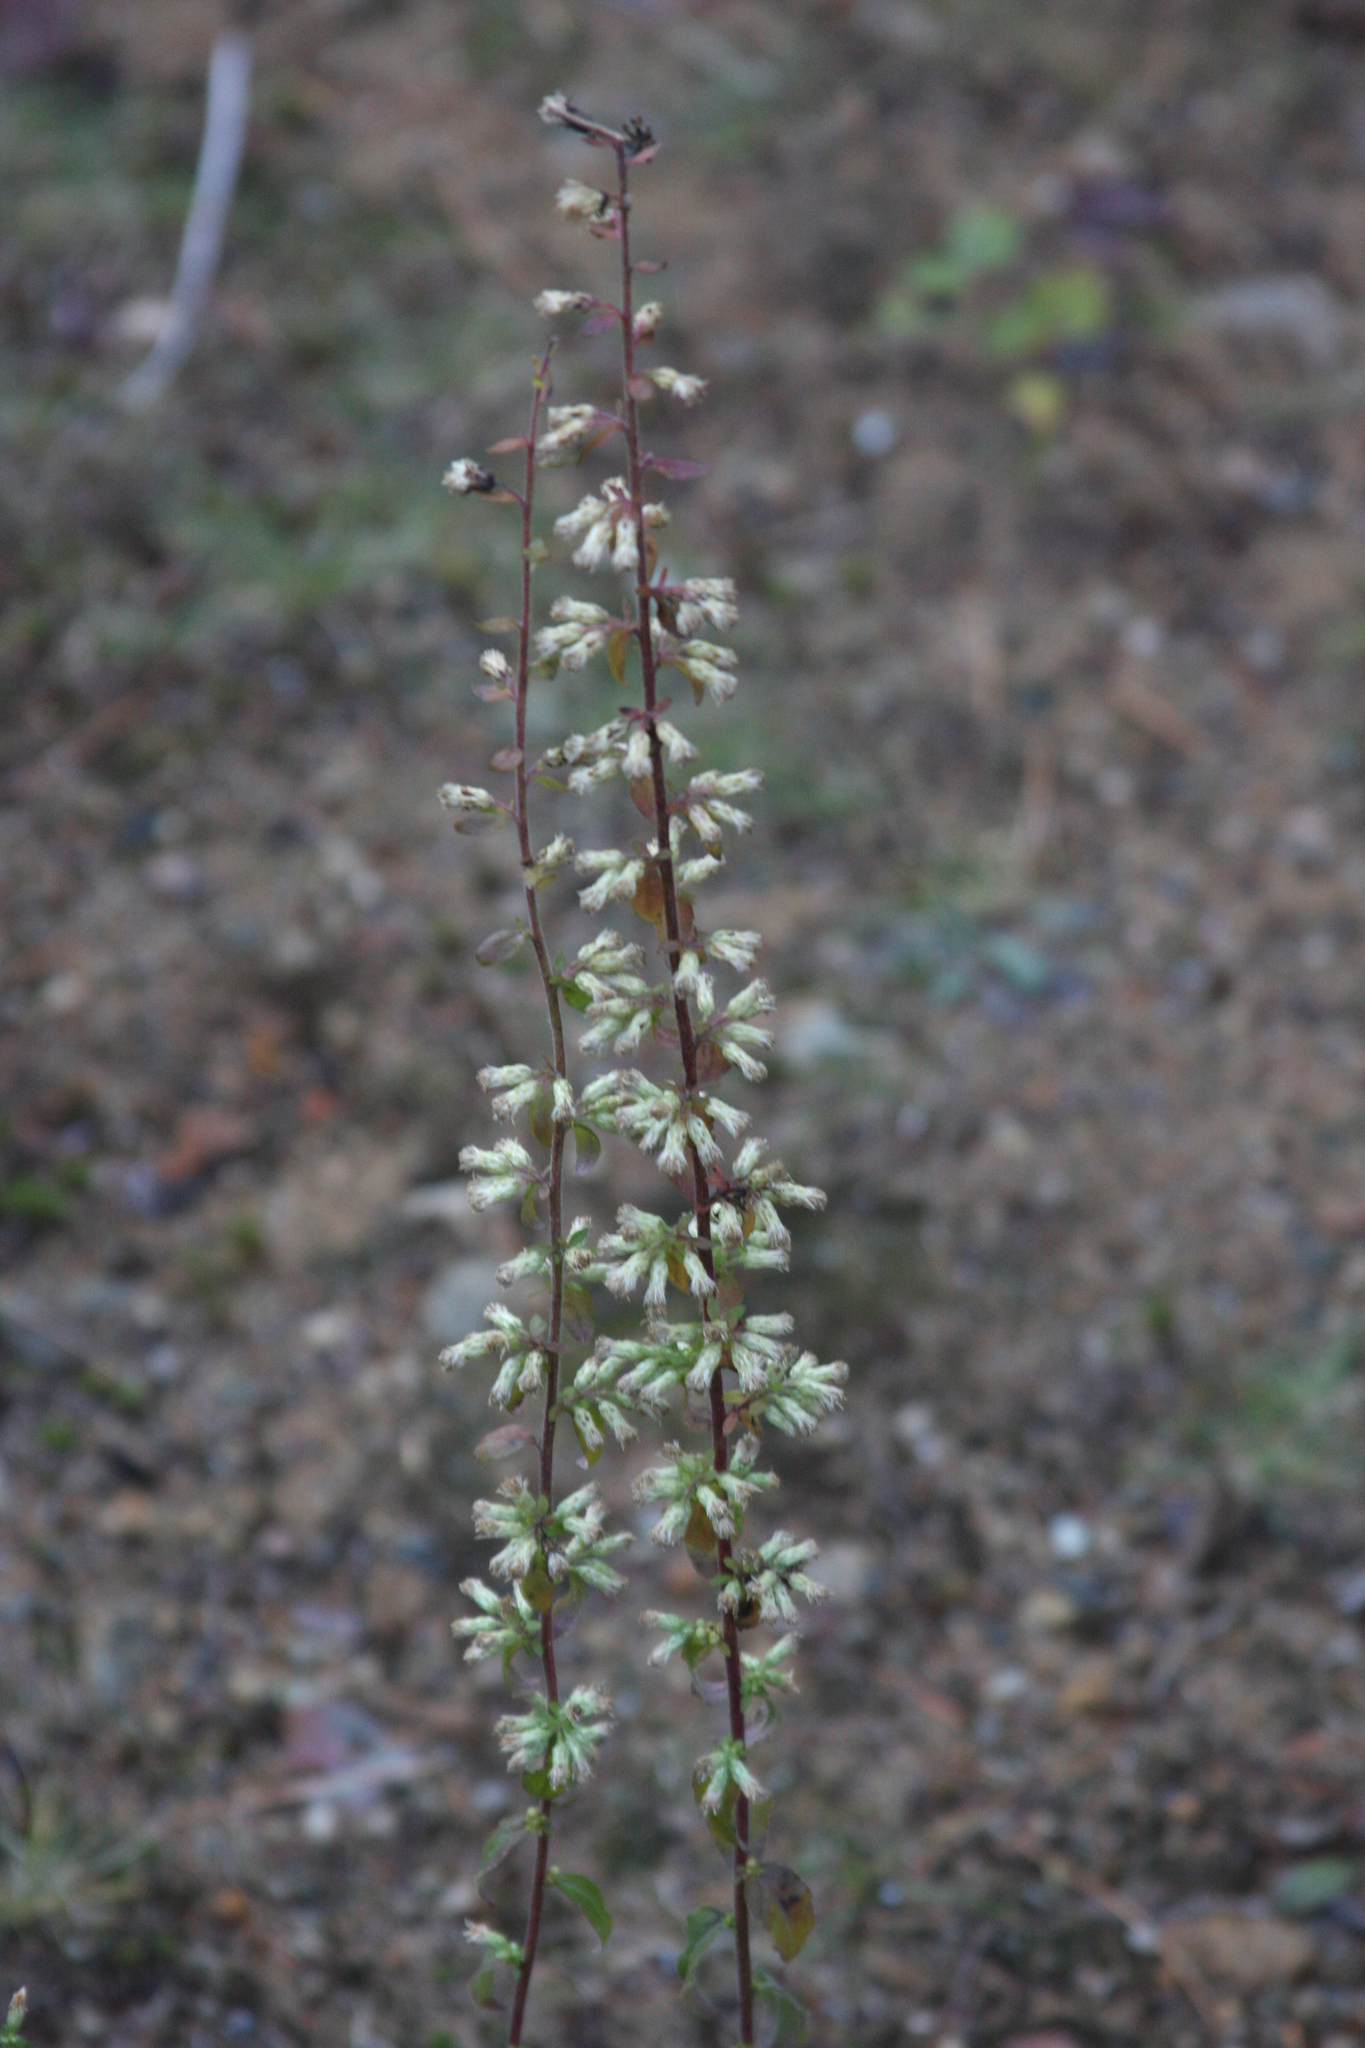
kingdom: Plantae
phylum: Tracheophyta
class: Magnoliopsida
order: Asterales
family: Asteraceae
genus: Solidago
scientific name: Solidago bicolor
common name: Silverrod
